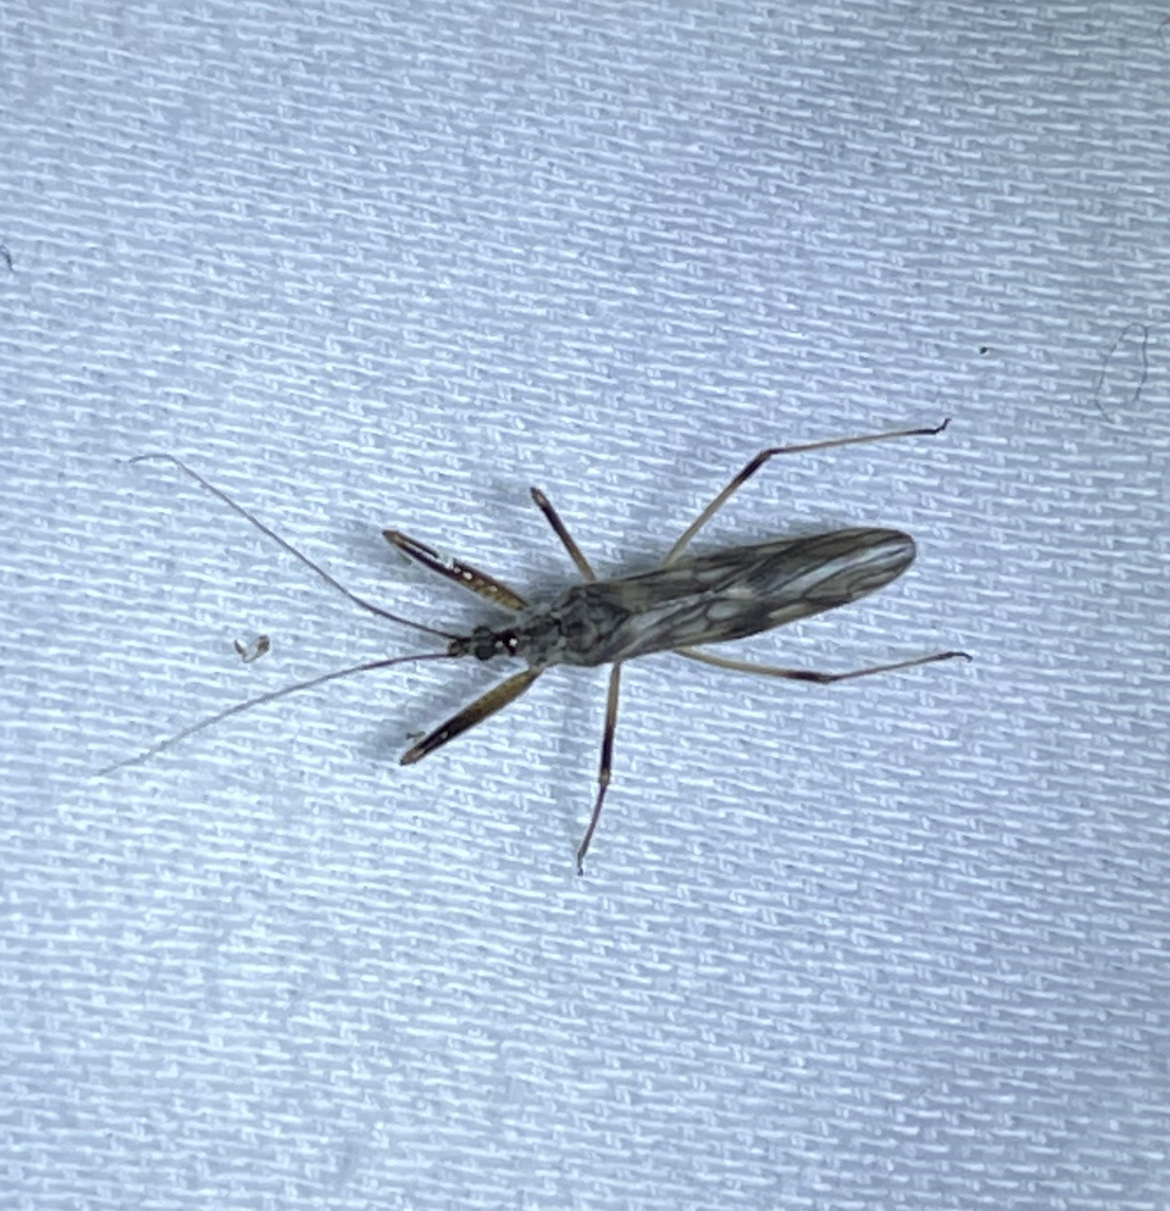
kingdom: Animalia
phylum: Arthropoda
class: Insecta
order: Hemiptera
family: Nabidae
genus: Metatropiphorus
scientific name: Metatropiphorus belfragii
